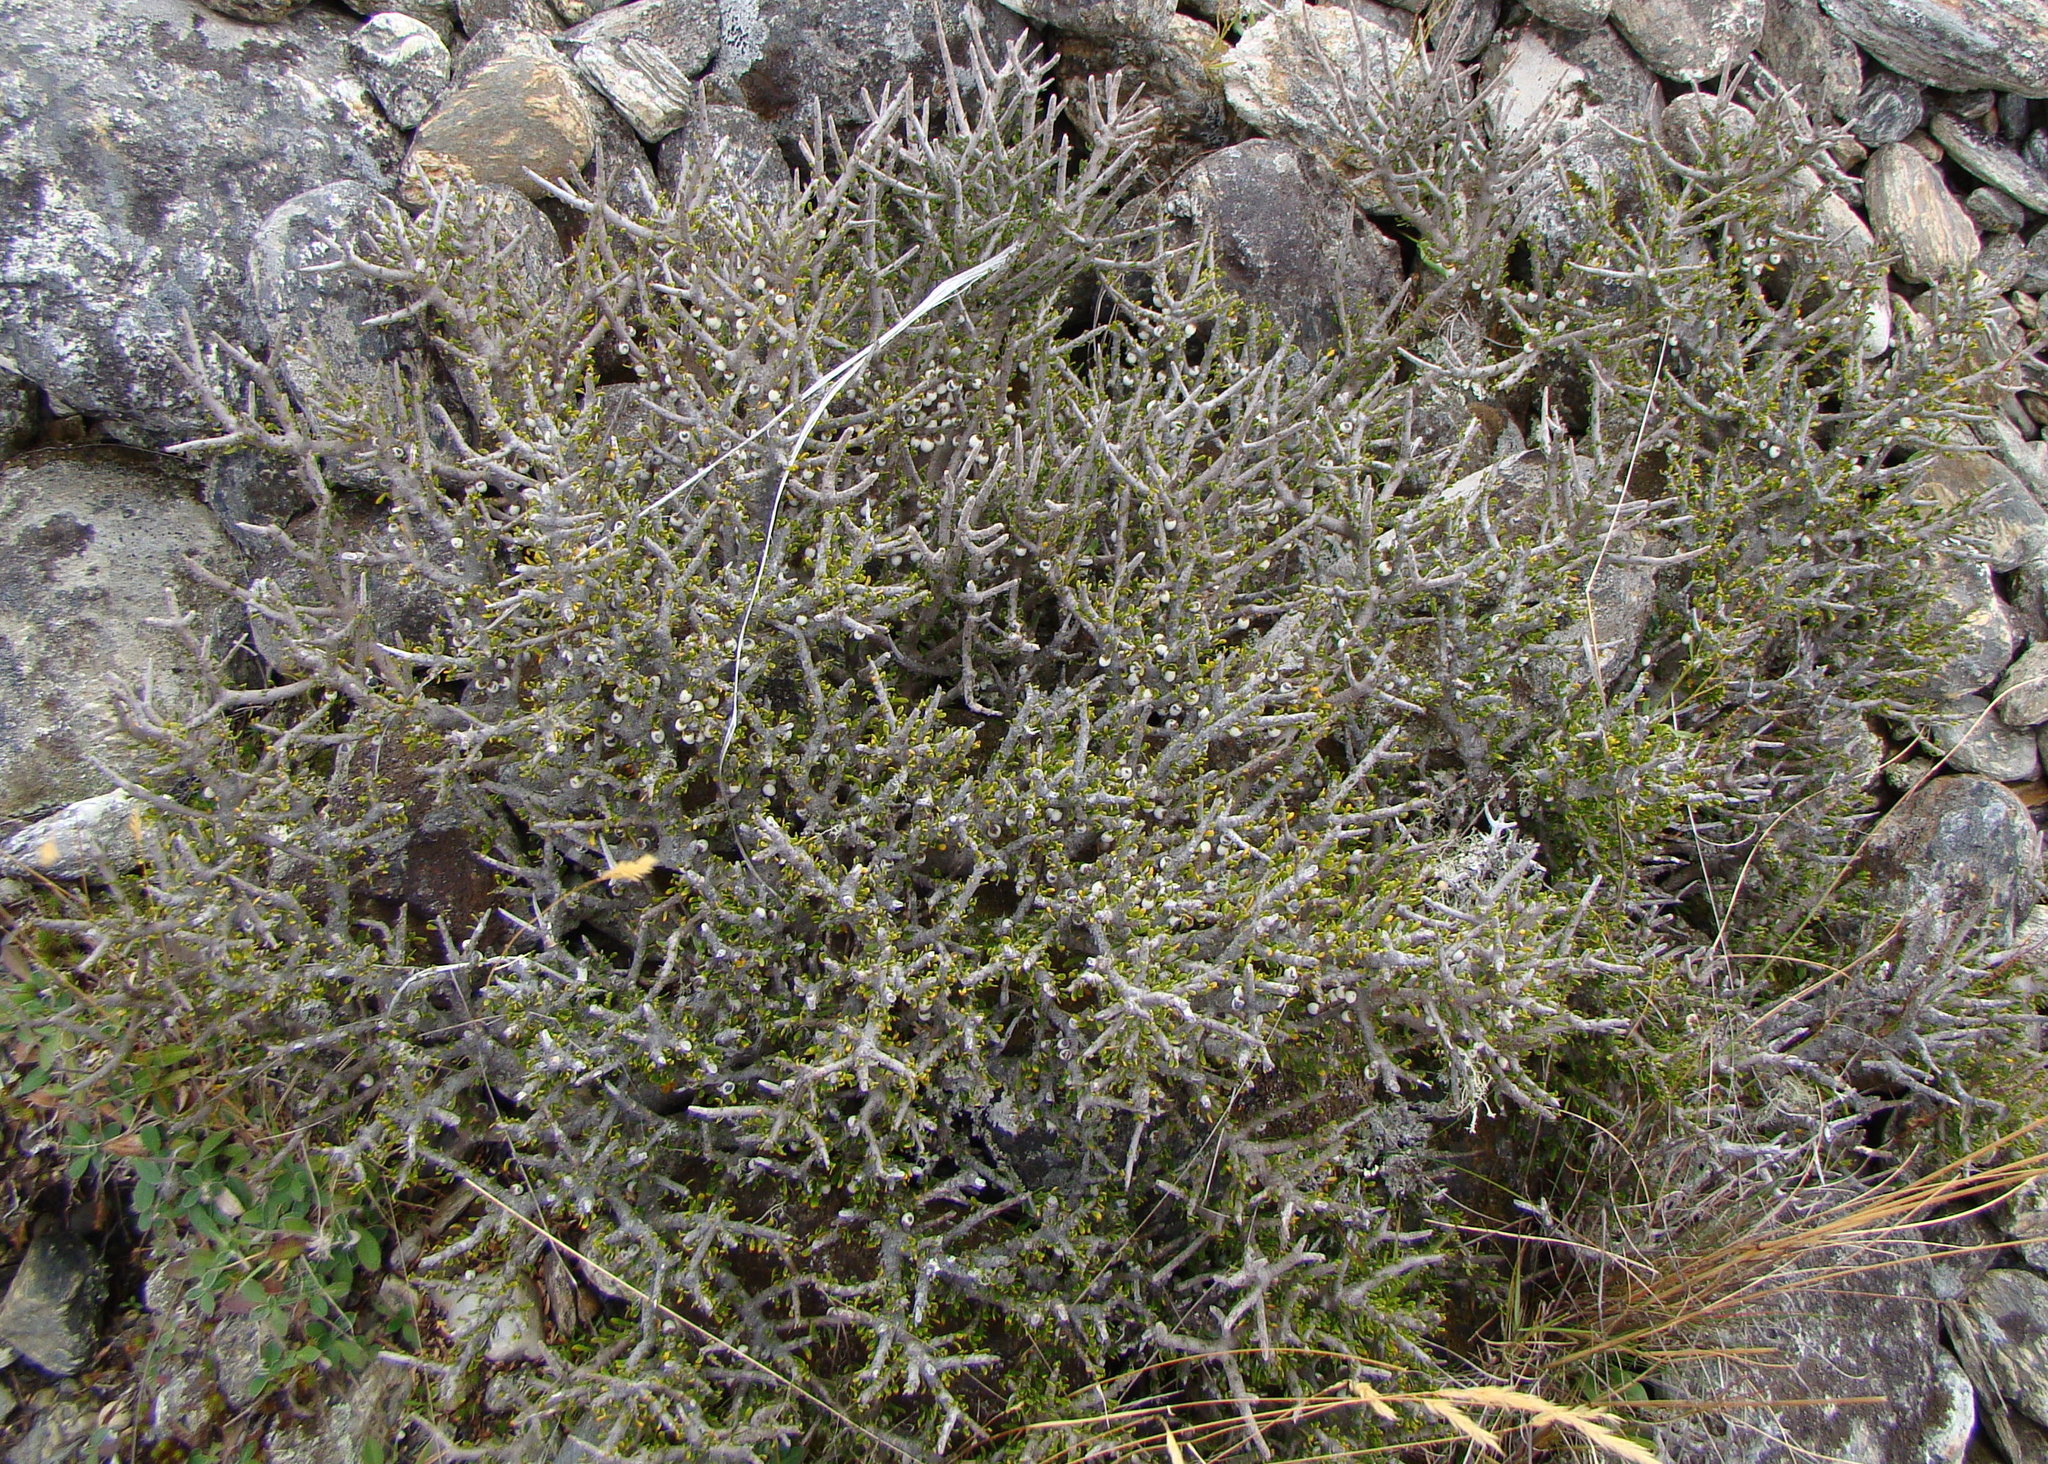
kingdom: Plantae
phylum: Tracheophyta
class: Magnoliopsida
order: Malpighiales
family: Violaceae
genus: Melicytus
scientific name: Melicytus alpinus
